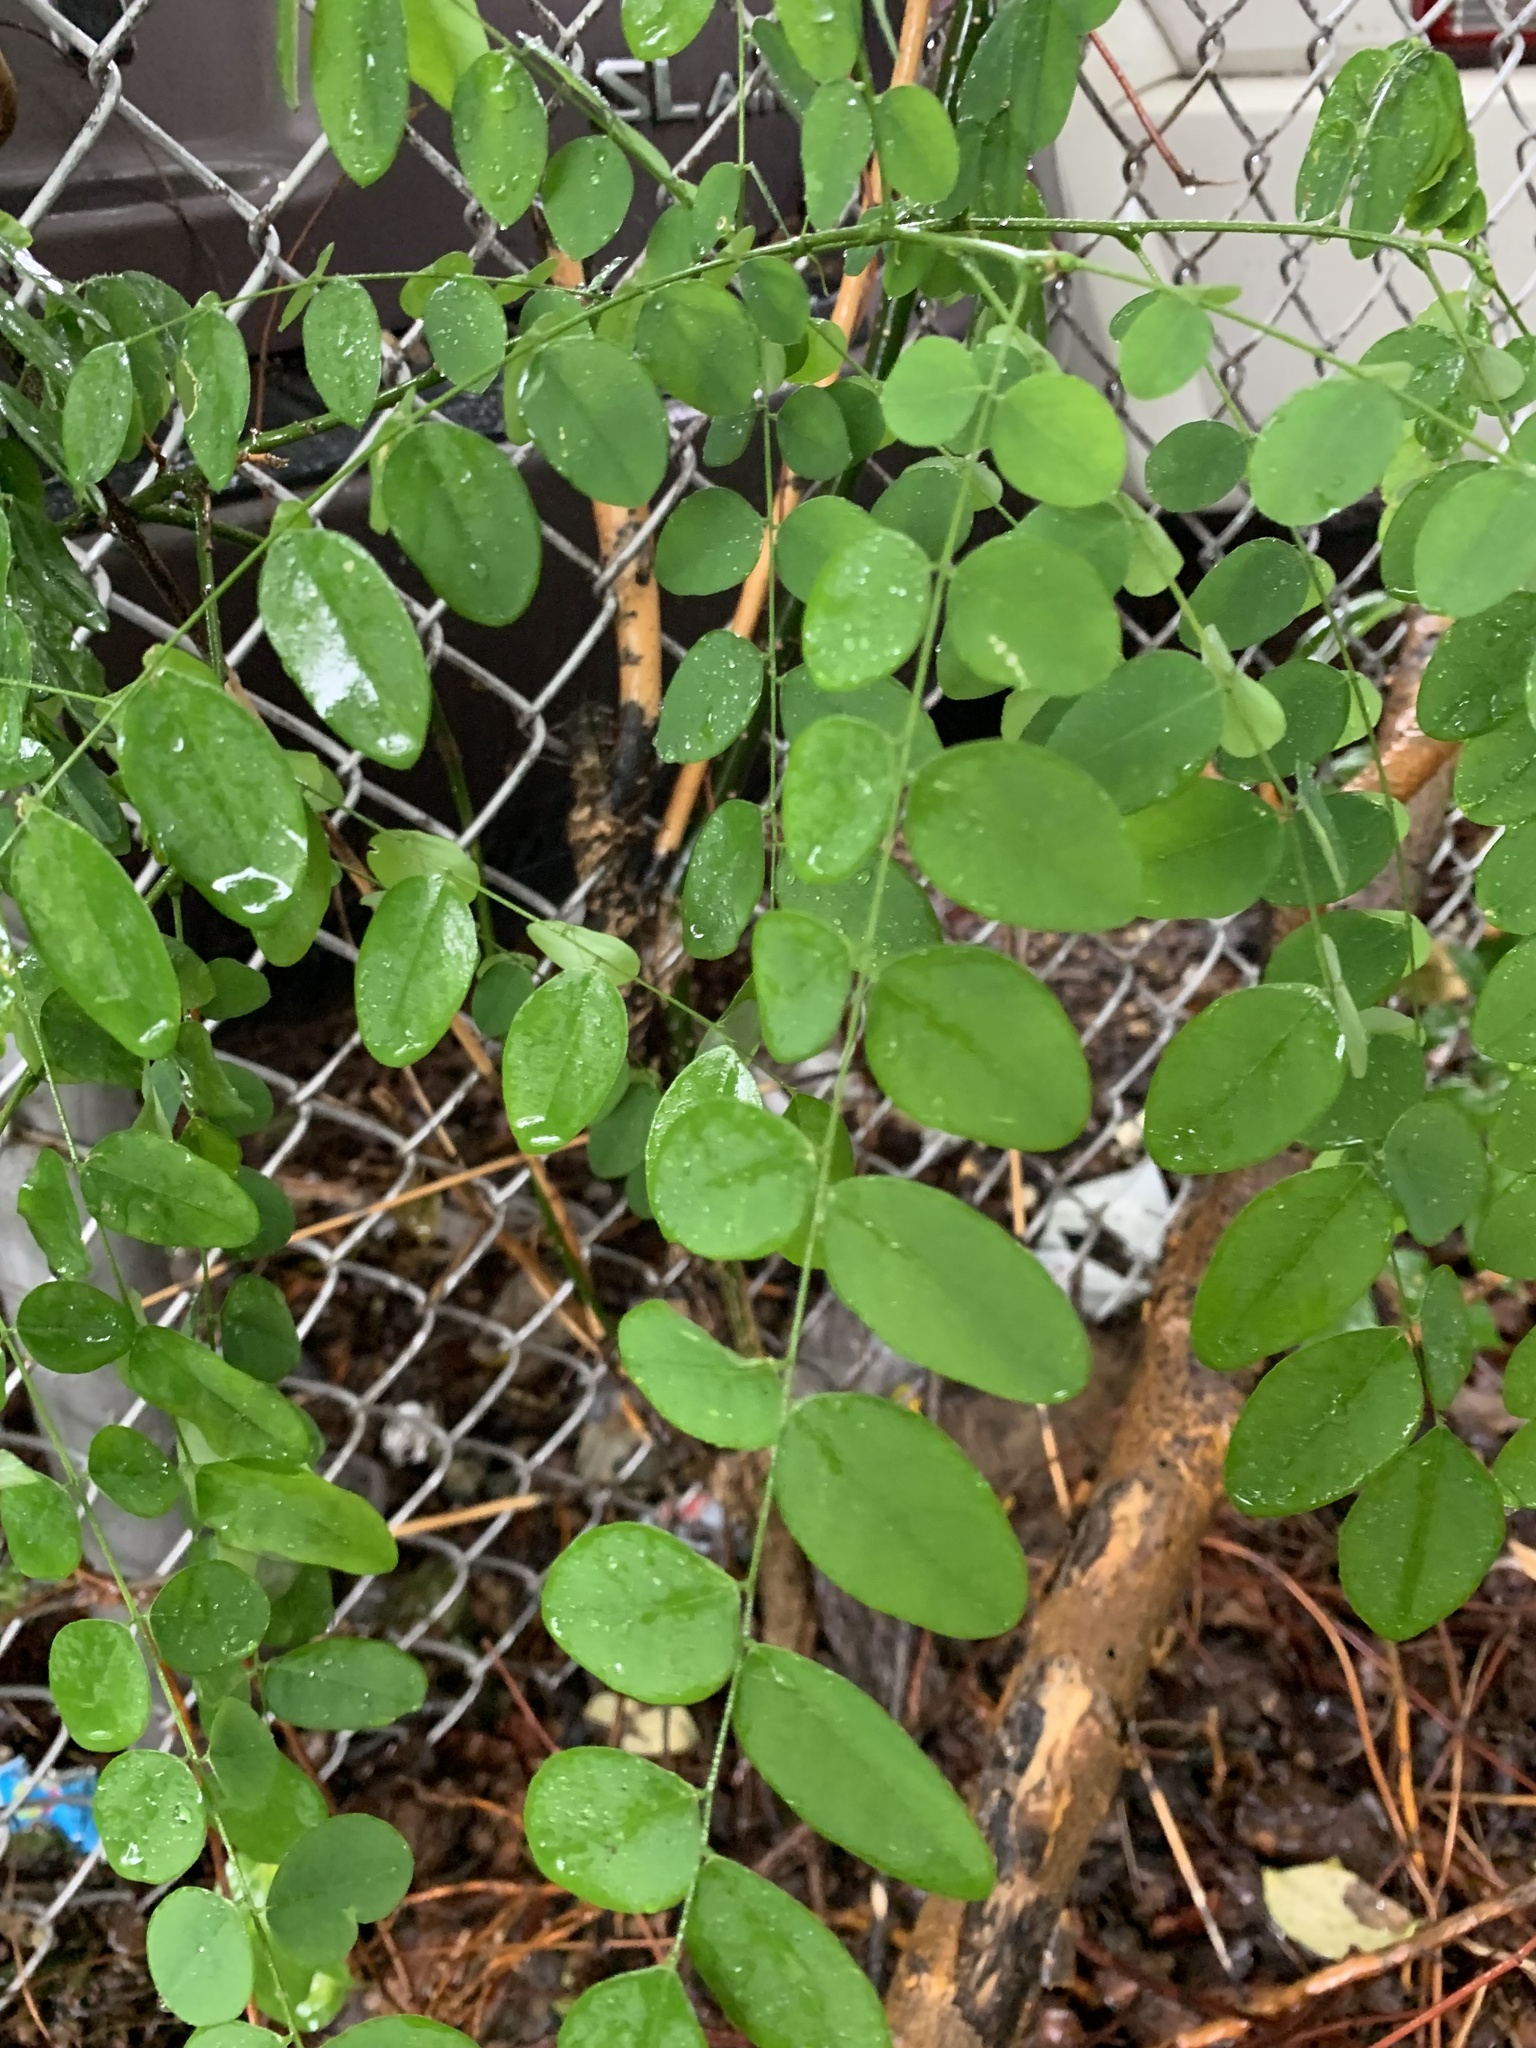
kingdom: Plantae
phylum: Tracheophyta
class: Magnoliopsida
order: Fabales
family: Fabaceae
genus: Robinia
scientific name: Robinia pseudoacacia
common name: Black locust
